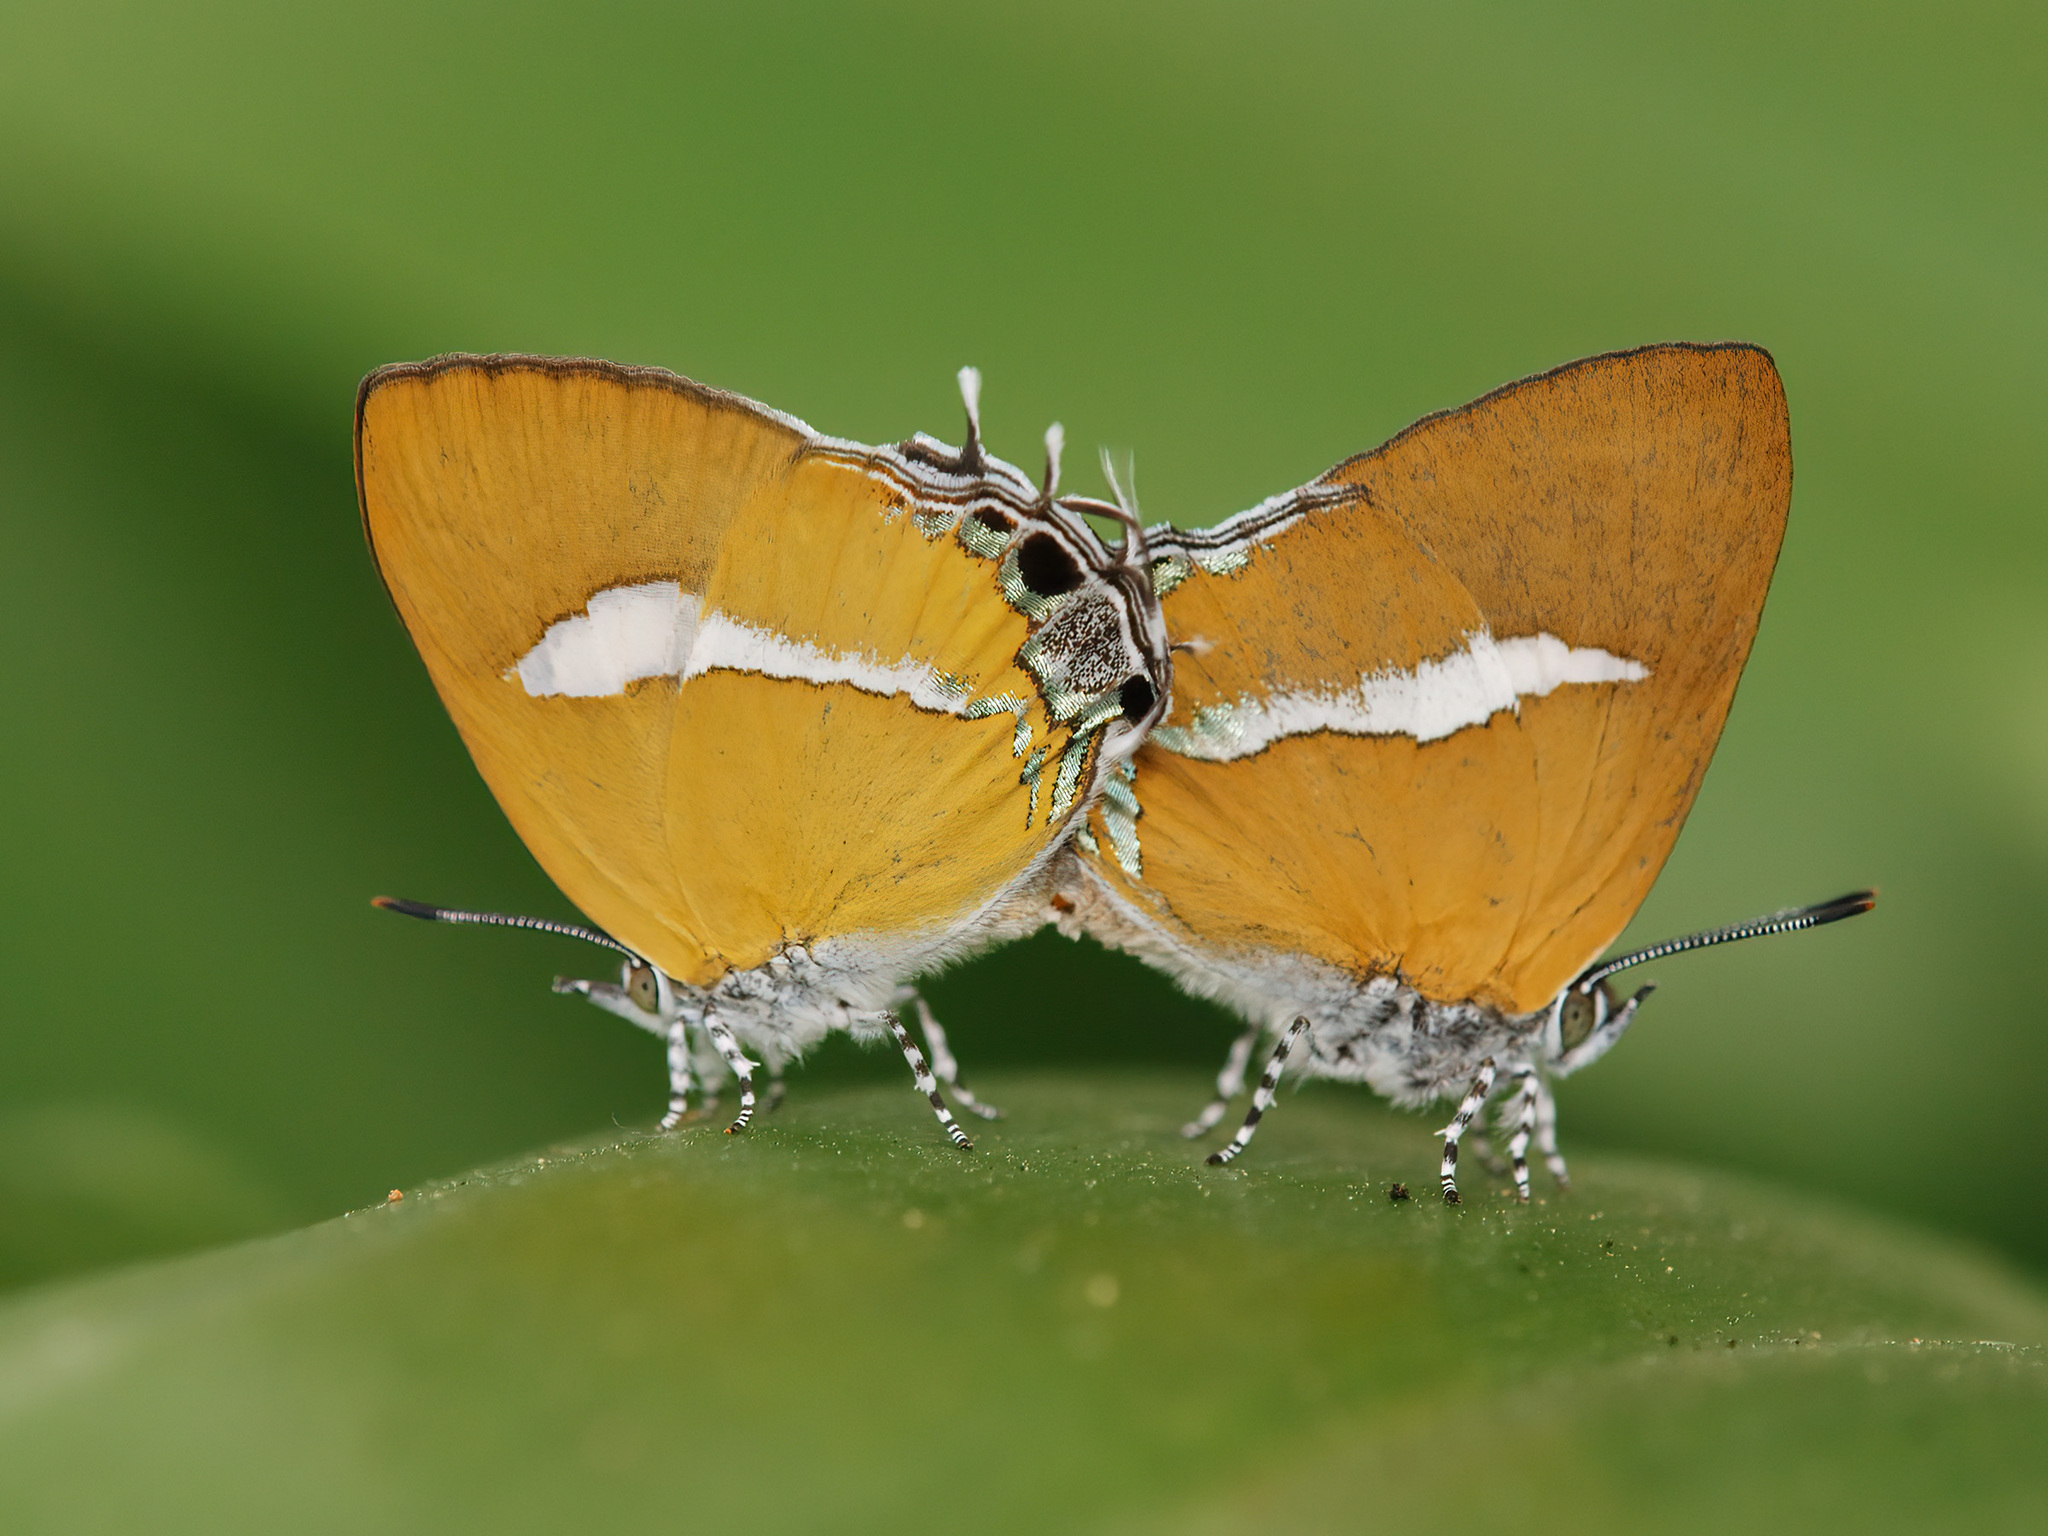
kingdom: Animalia
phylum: Arthropoda
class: Insecta
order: Lepidoptera
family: Lycaenidae
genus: Horaga
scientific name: Horaga syrinx
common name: Ambon onyx
